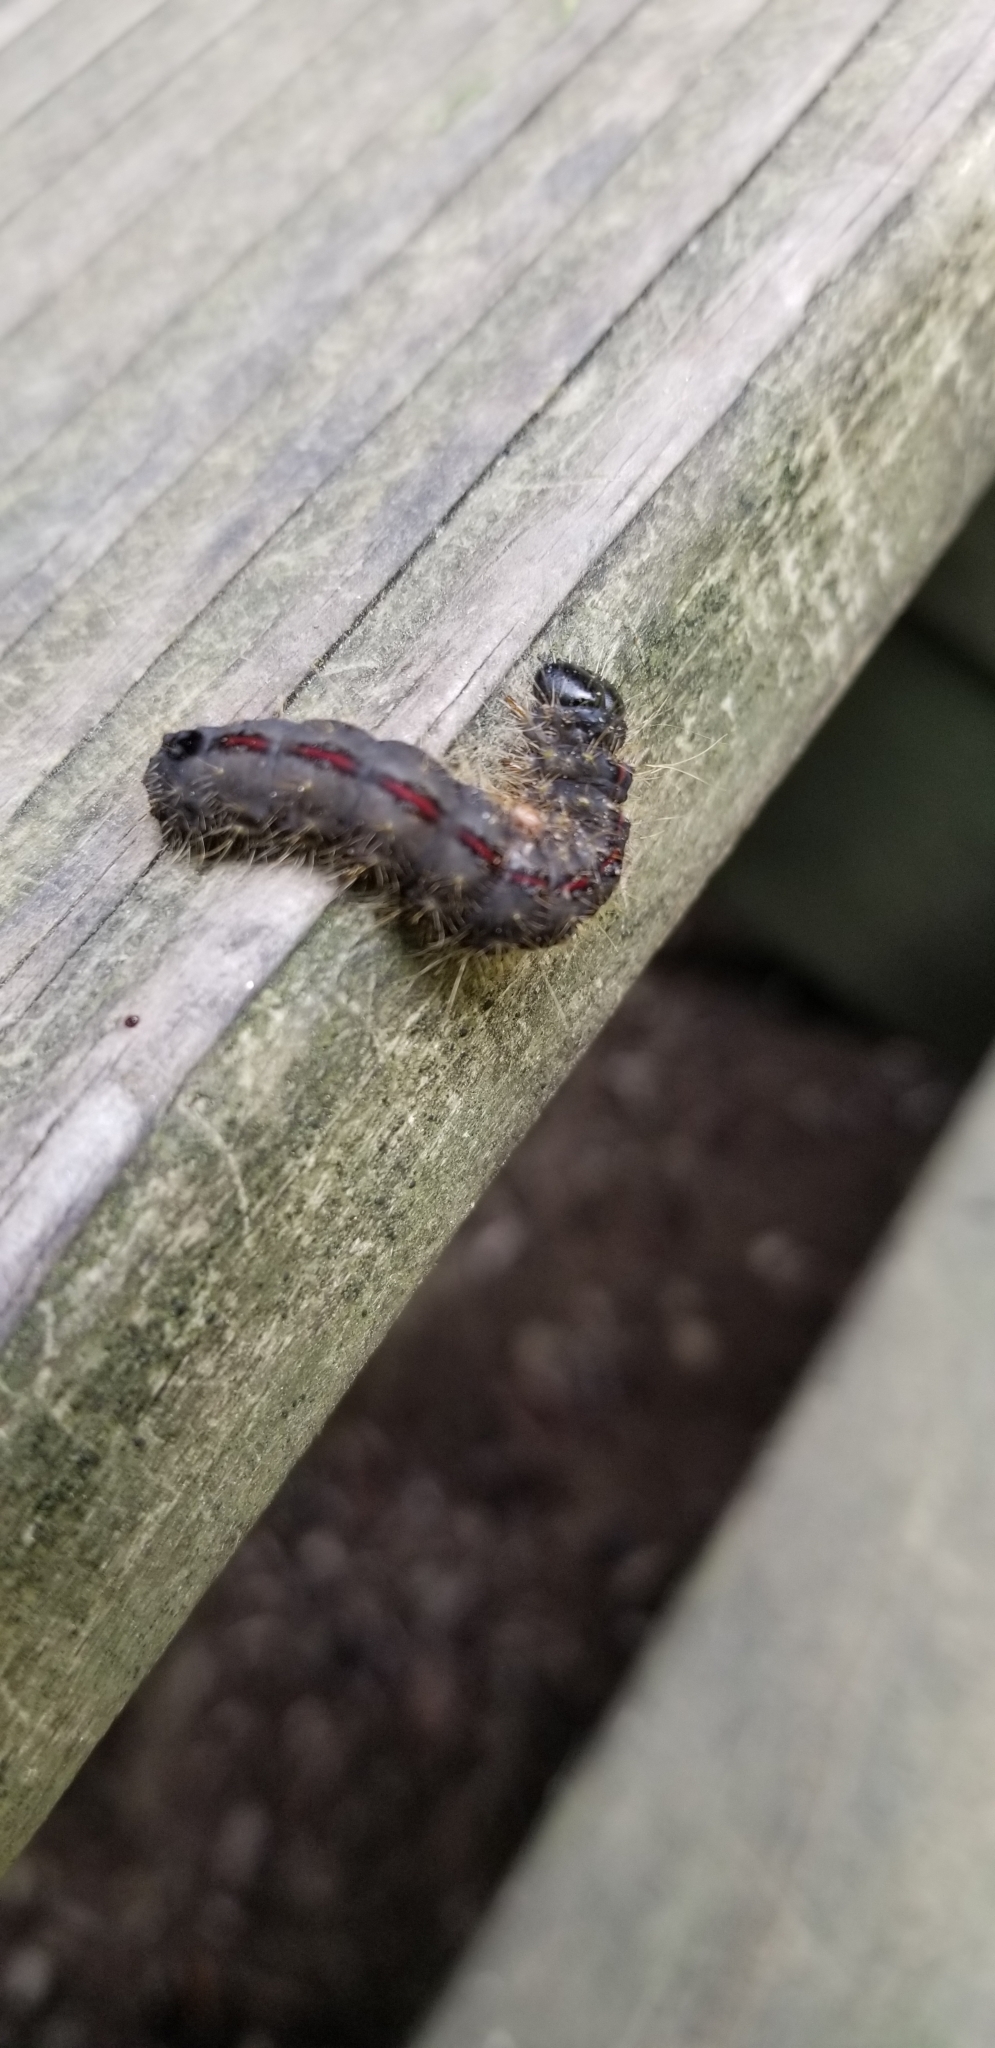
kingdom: Animalia
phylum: Arthropoda
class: Insecta
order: Lepidoptera
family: Noctuidae
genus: Acronicta
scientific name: Acronicta hasta
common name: Cherry dagger
